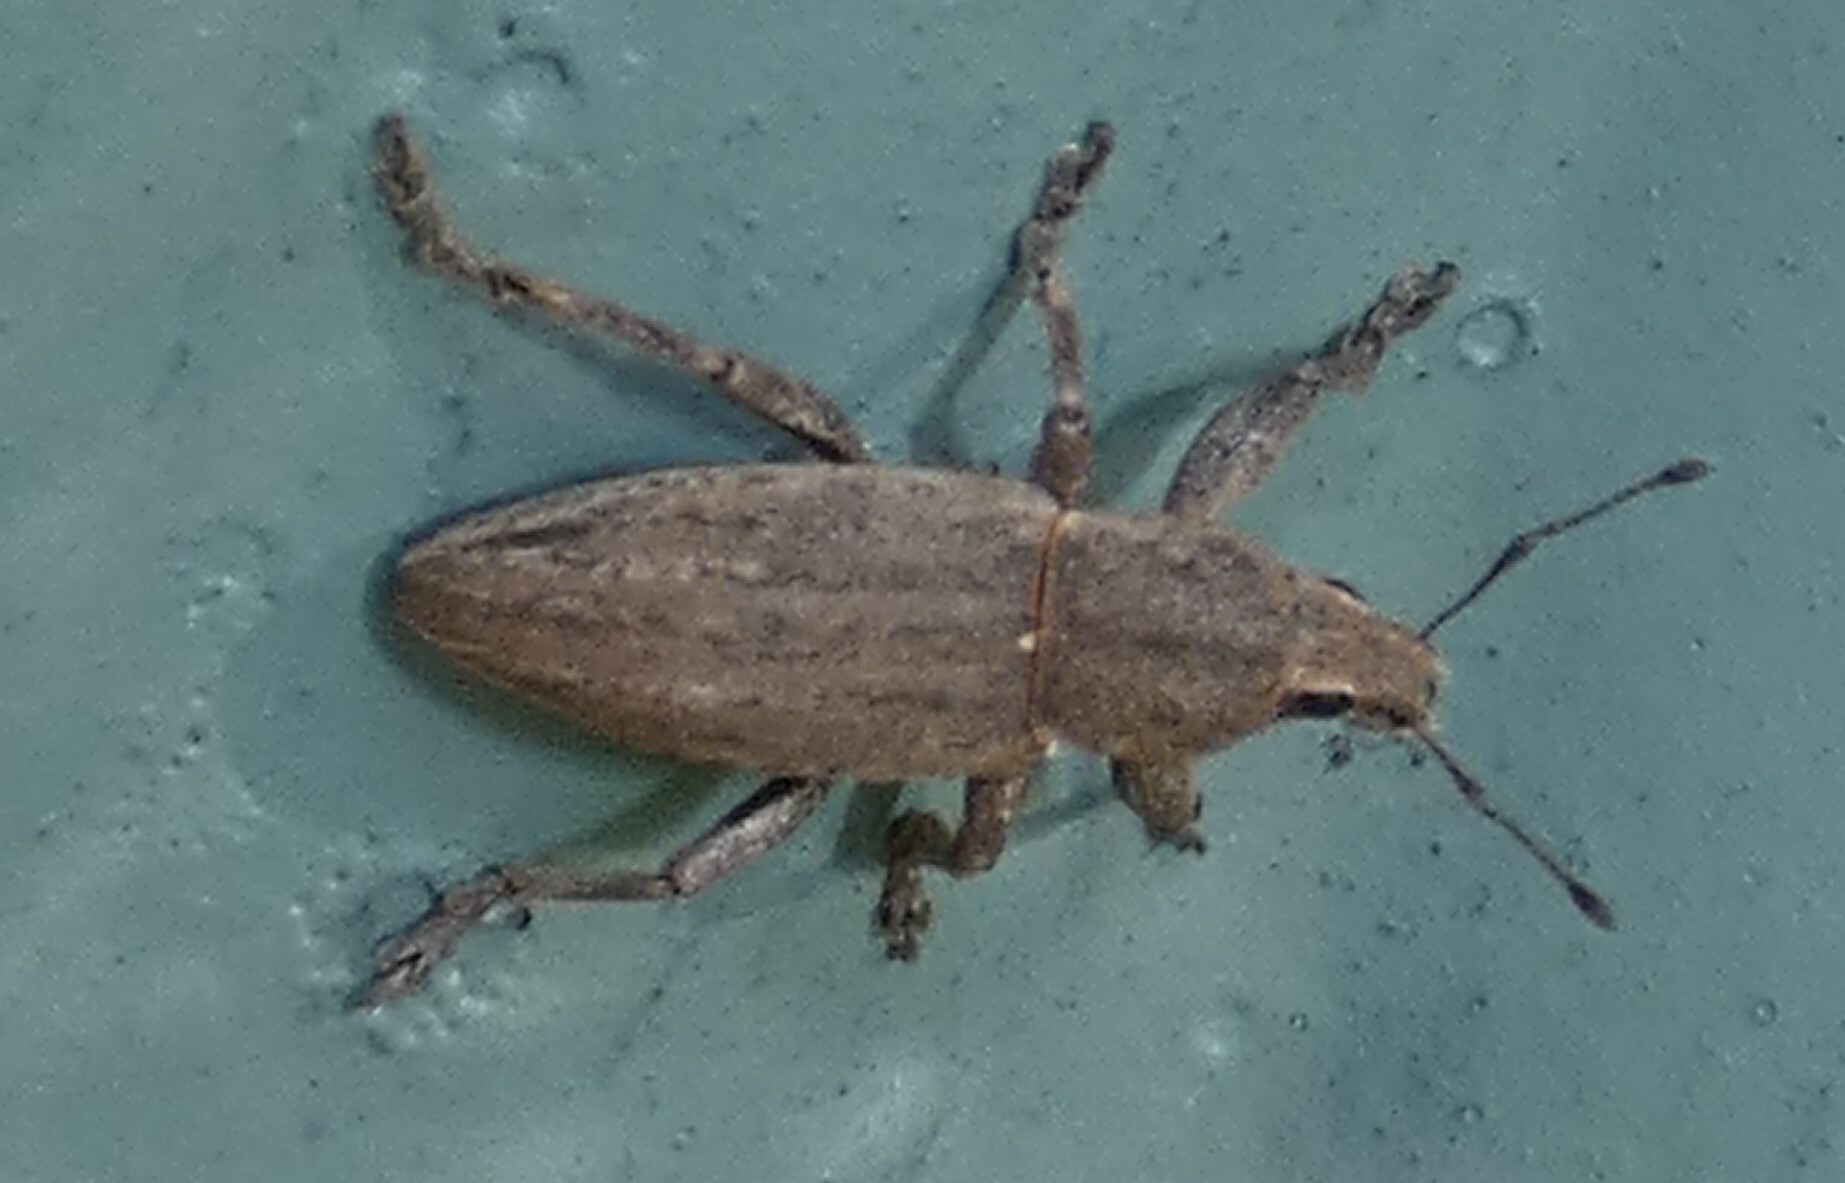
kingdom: Animalia
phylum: Arthropoda
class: Insecta
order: Coleoptera
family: Curculionidae
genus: Tanymecus
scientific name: Tanymecus lacaena
